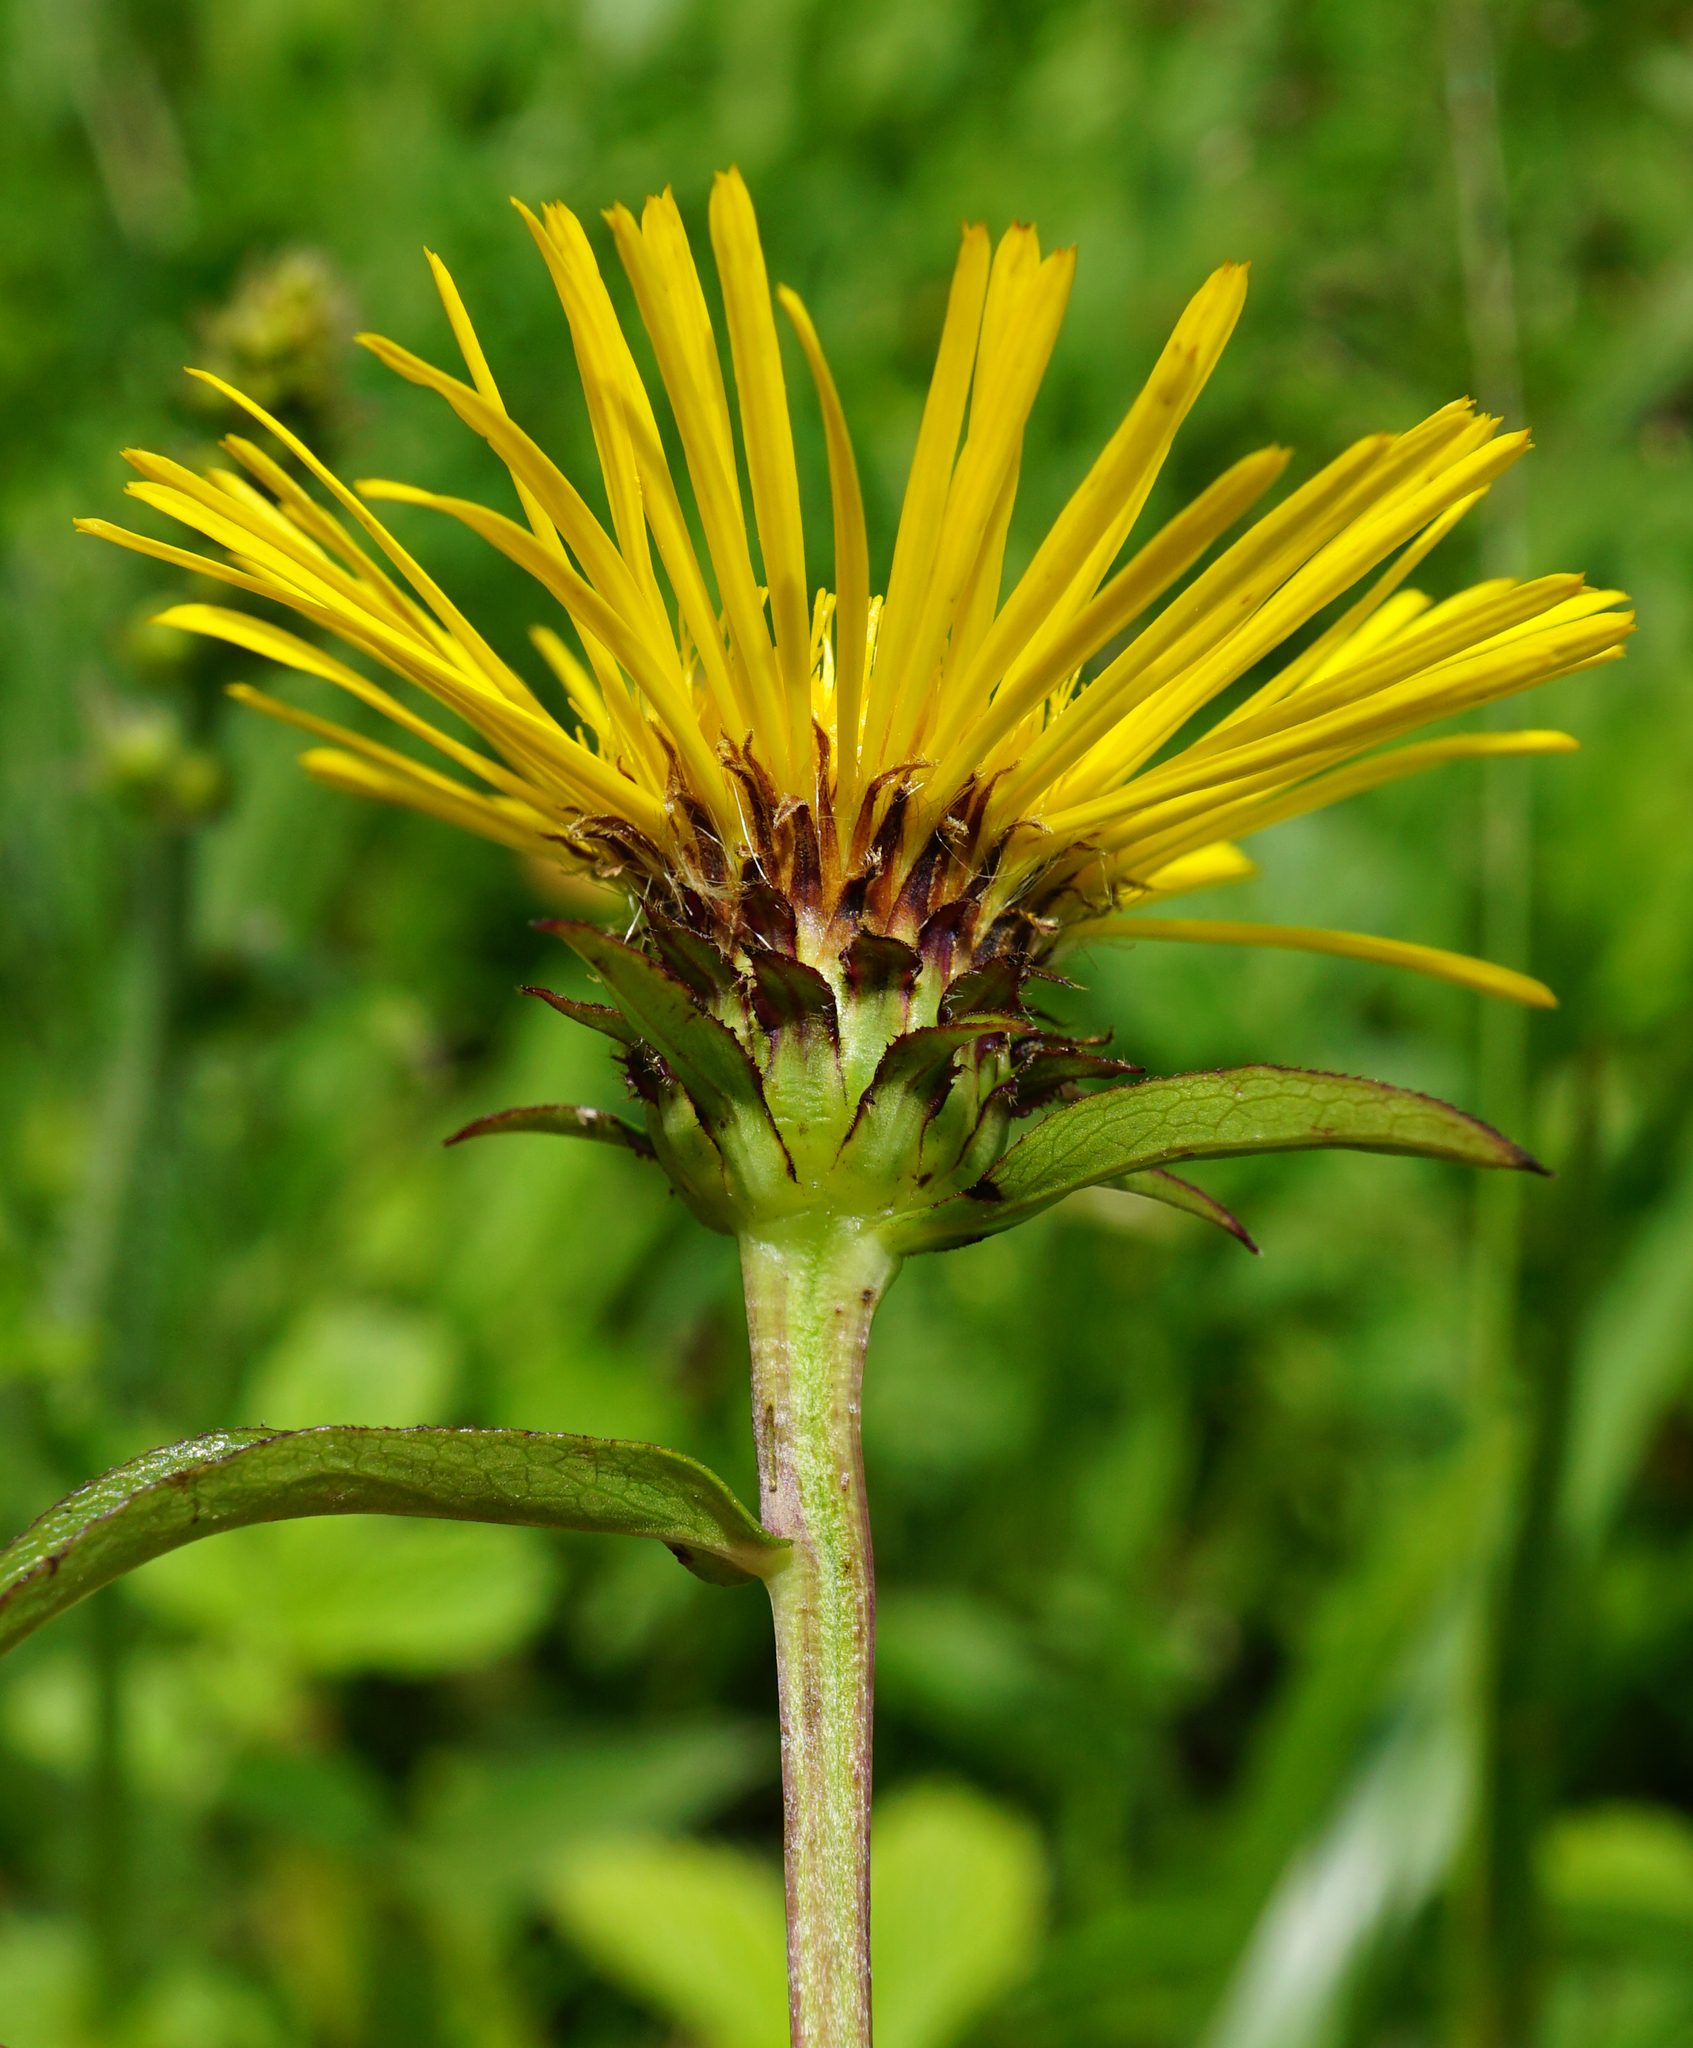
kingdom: Plantae
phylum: Tracheophyta
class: Magnoliopsida
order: Asterales
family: Asteraceae
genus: Pentanema
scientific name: Pentanema salicinum
